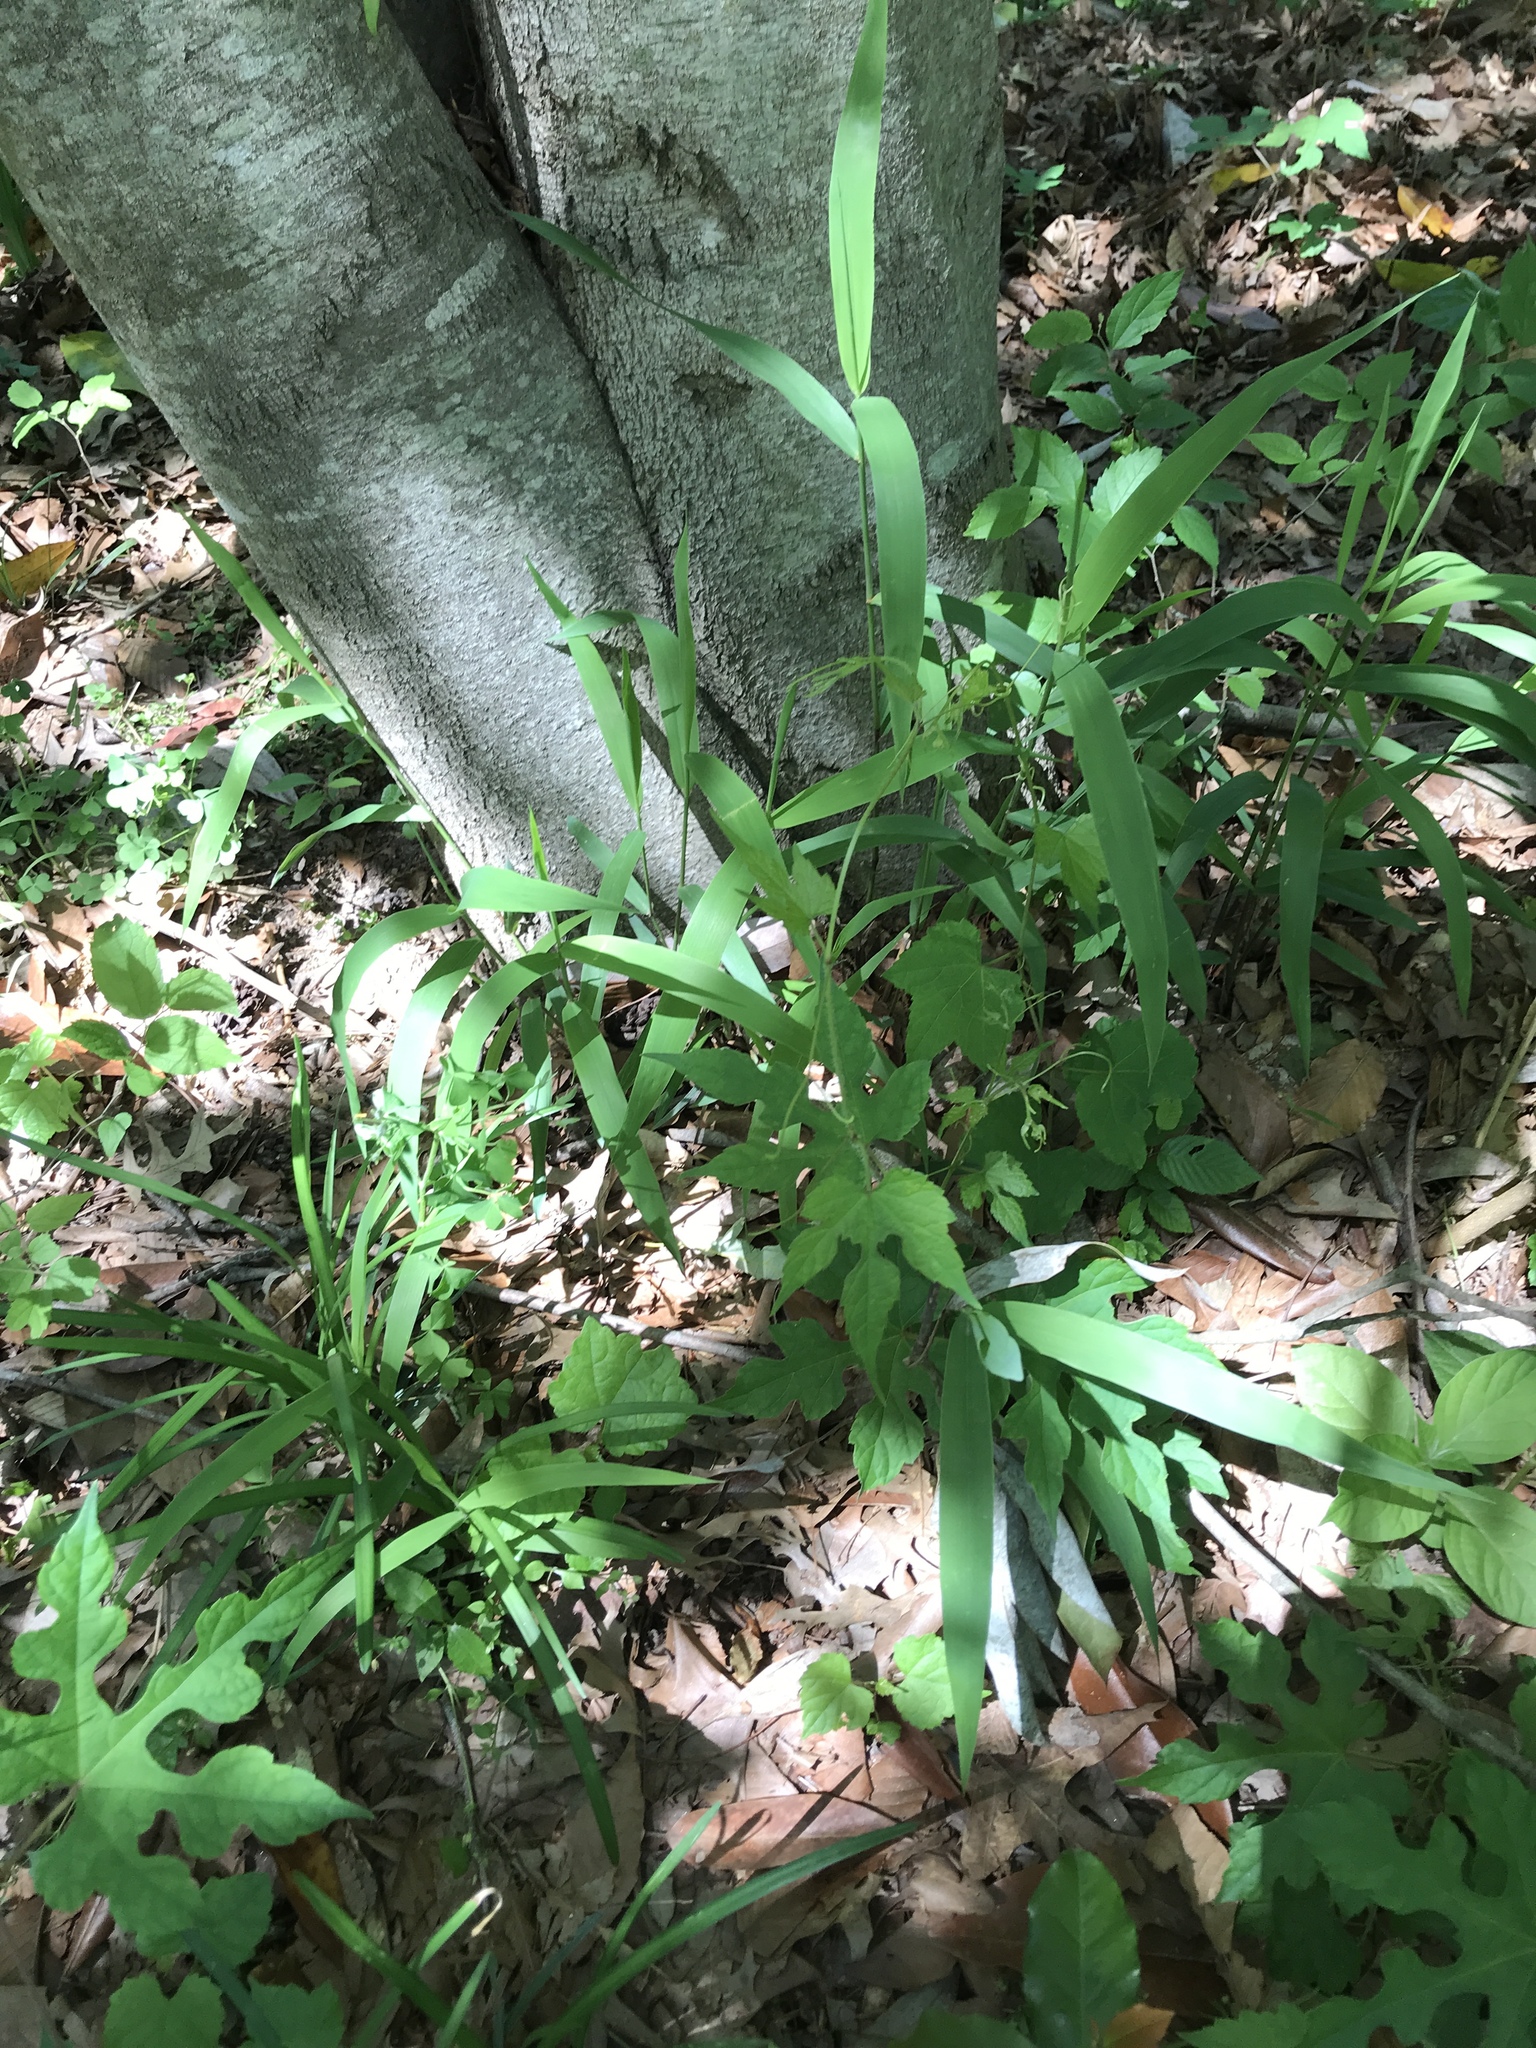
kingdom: Plantae
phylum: Tracheophyta
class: Liliopsida
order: Poales
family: Poaceae
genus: Chasmanthium
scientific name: Chasmanthium latifolium
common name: Broad-leaved chasmanthium
